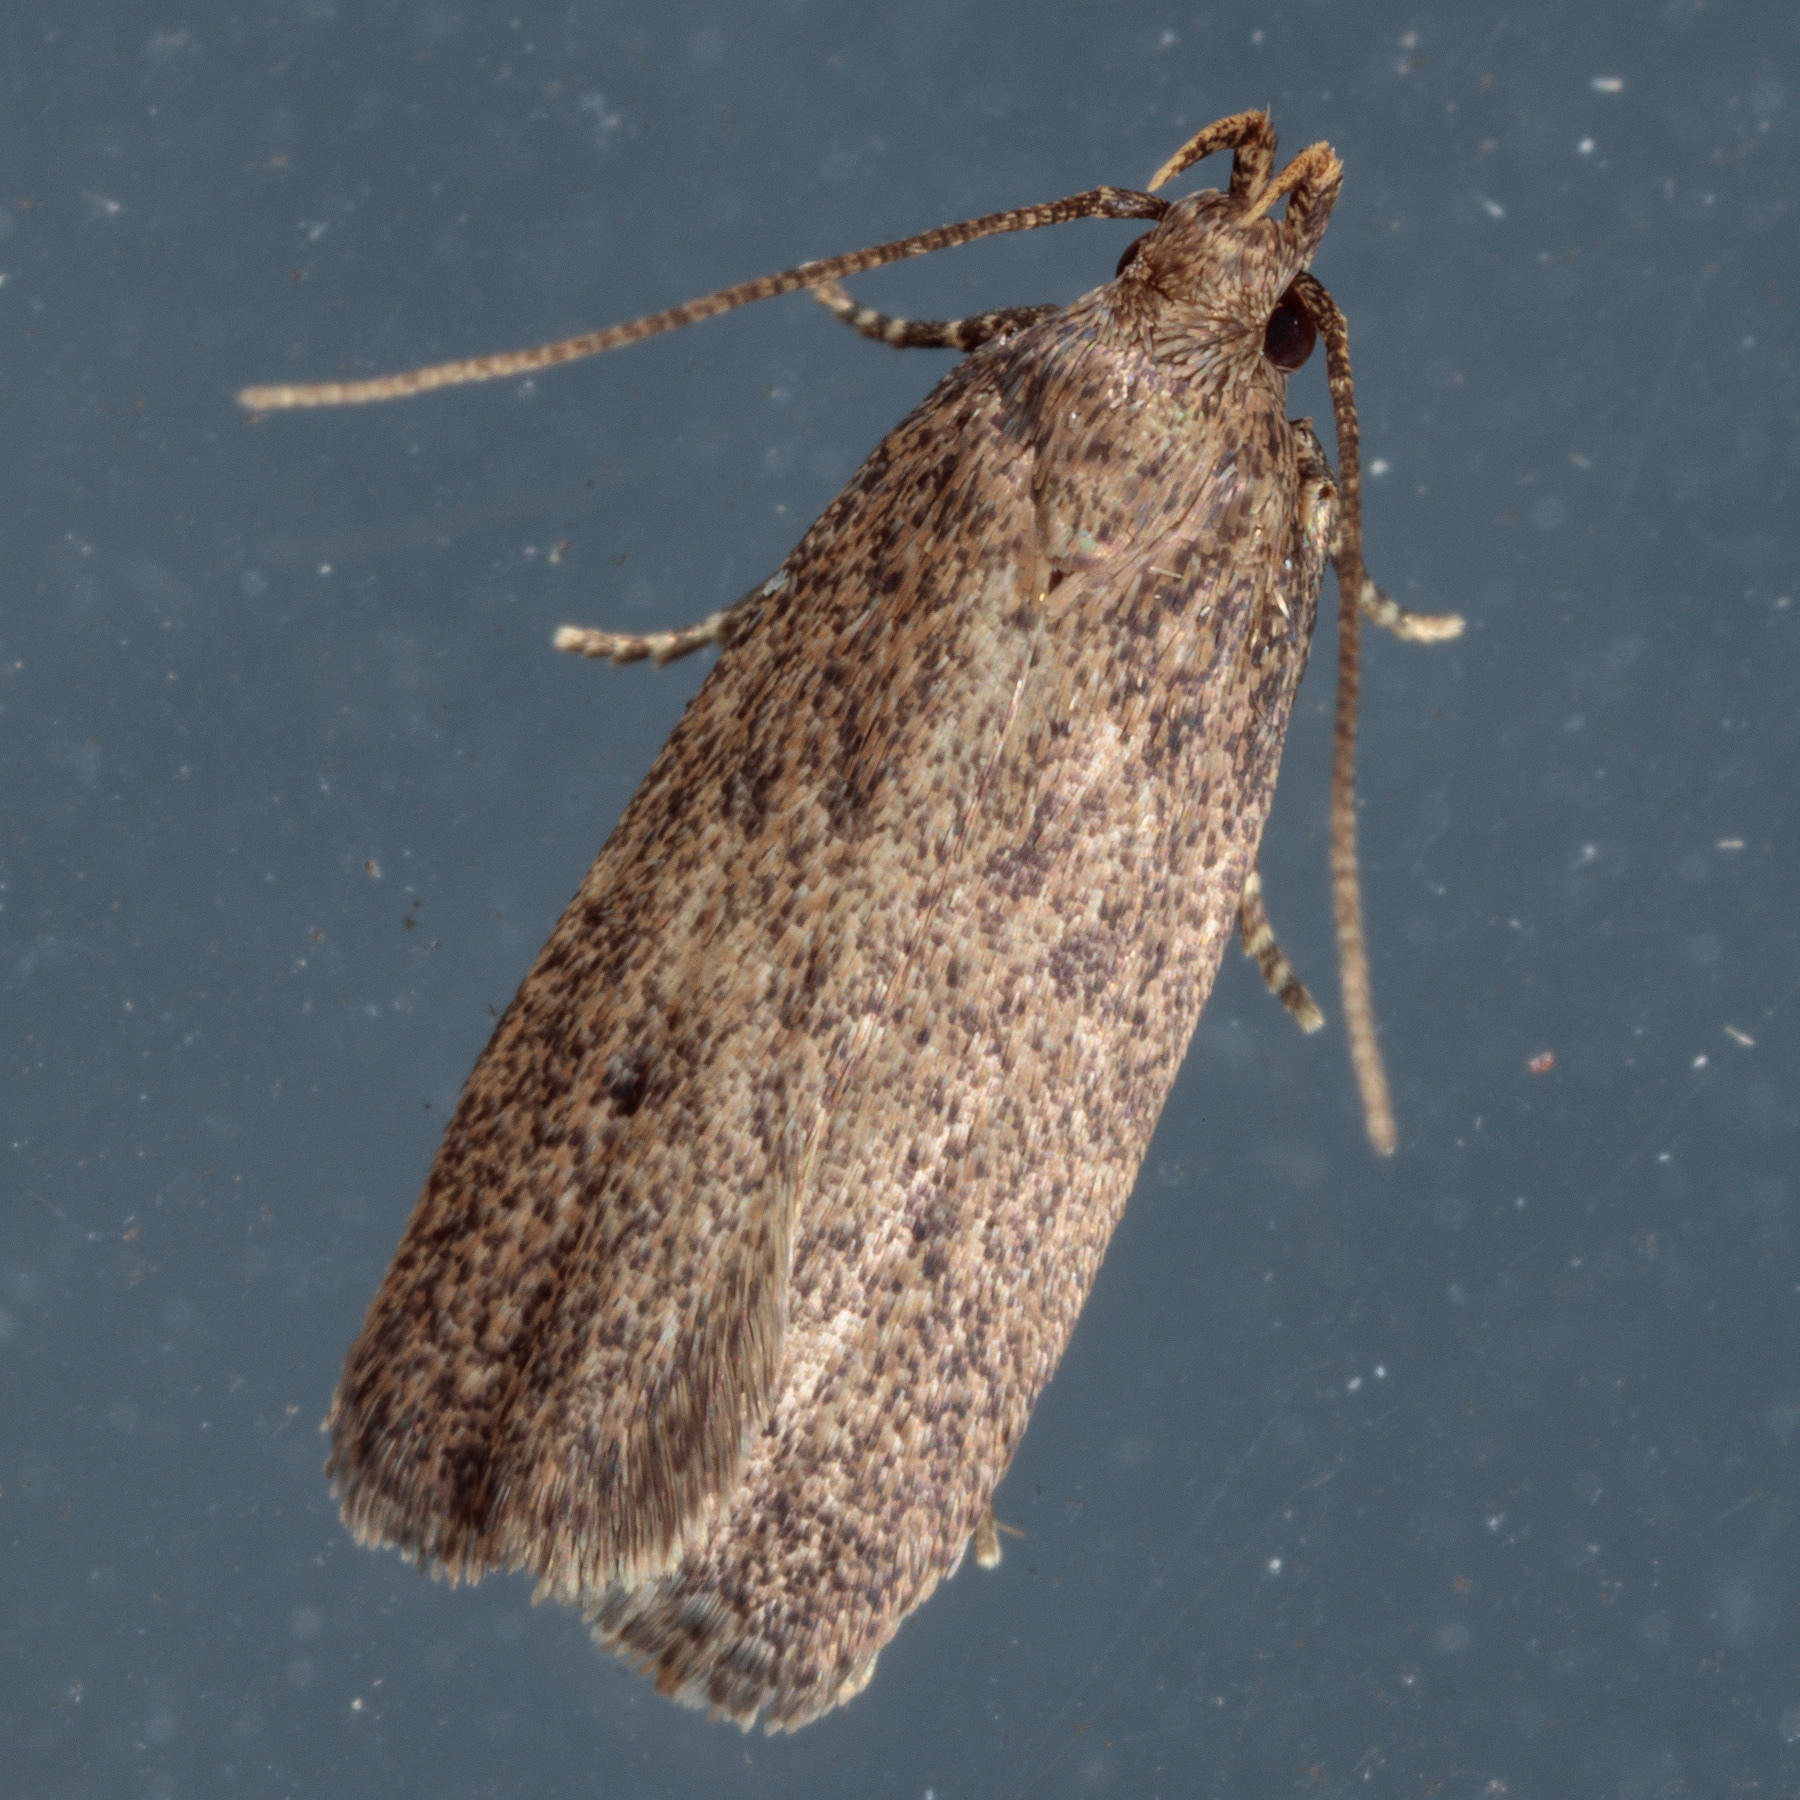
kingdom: Animalia
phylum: Arthropoda
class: Insecta
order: Lepidoptera
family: Autostichidae
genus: Glyphidocera
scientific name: Glyphidocera juniperella
